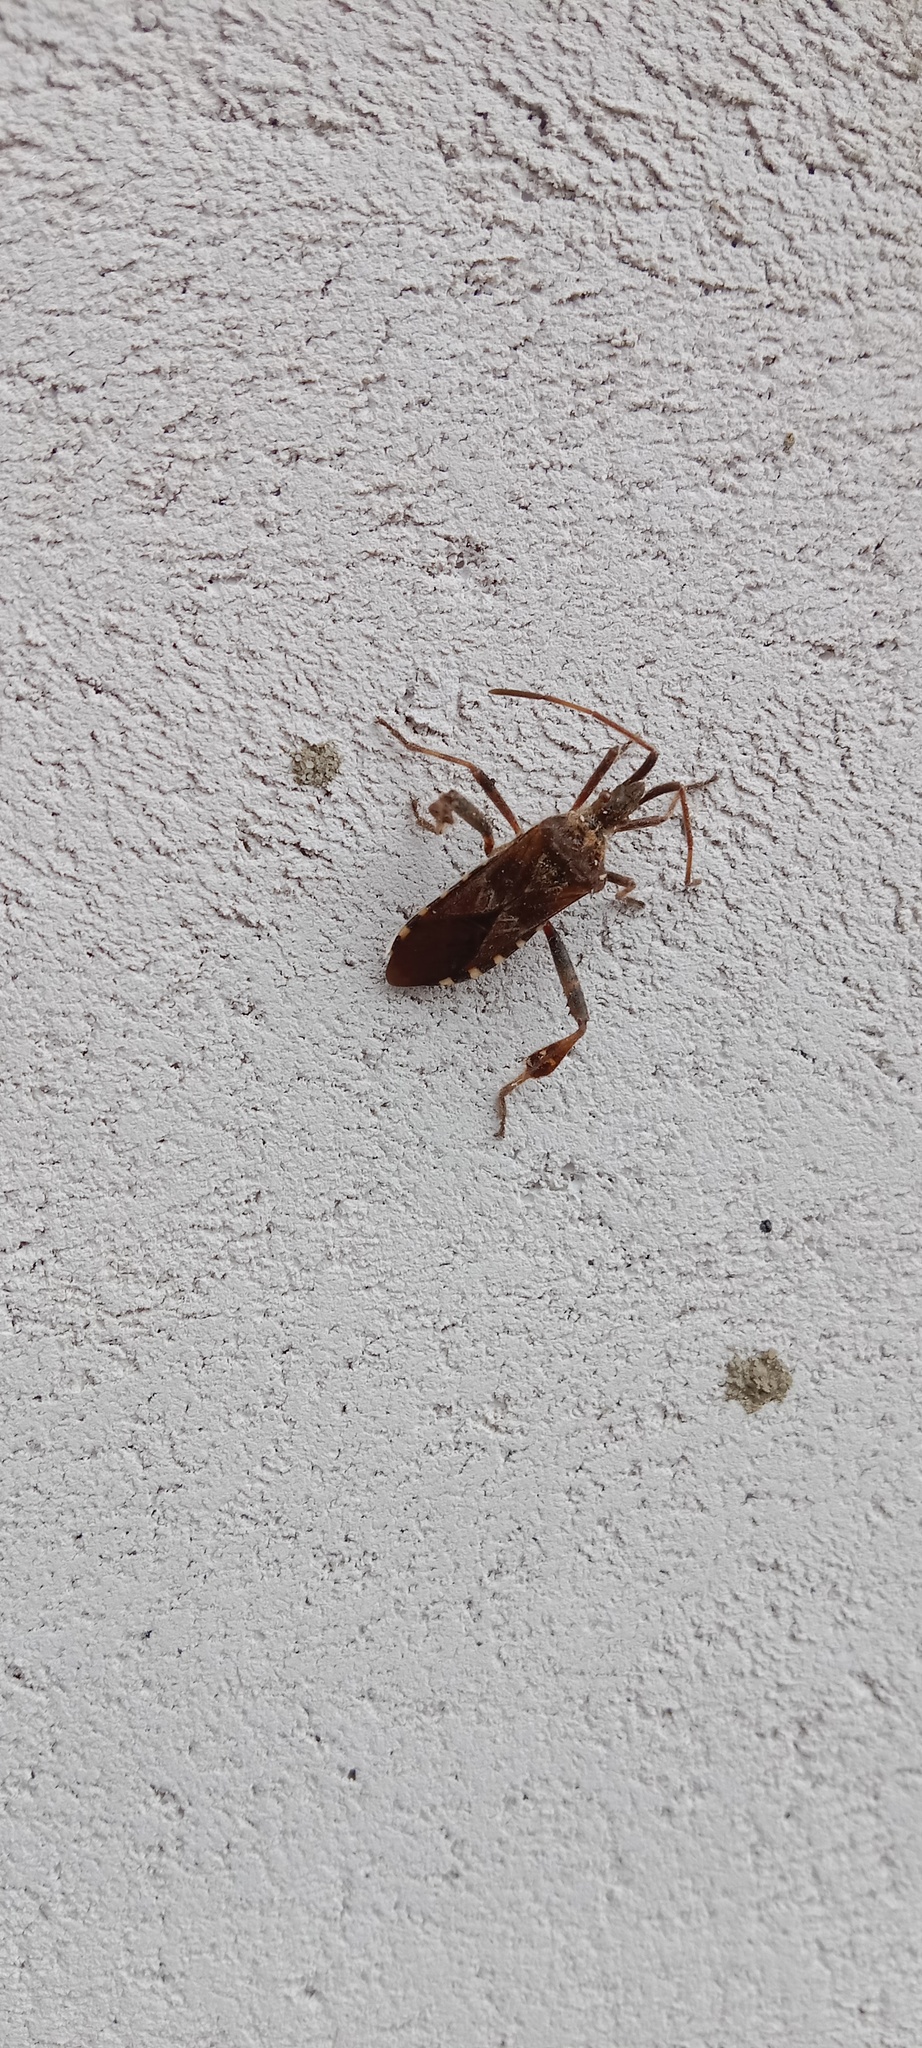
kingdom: Animalia
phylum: Arthropoda
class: Insecta
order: Hemiptera
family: Coreidae
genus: Leptoglossus
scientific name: Leptoglossus occidentalis
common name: Western conifer-seed bug
